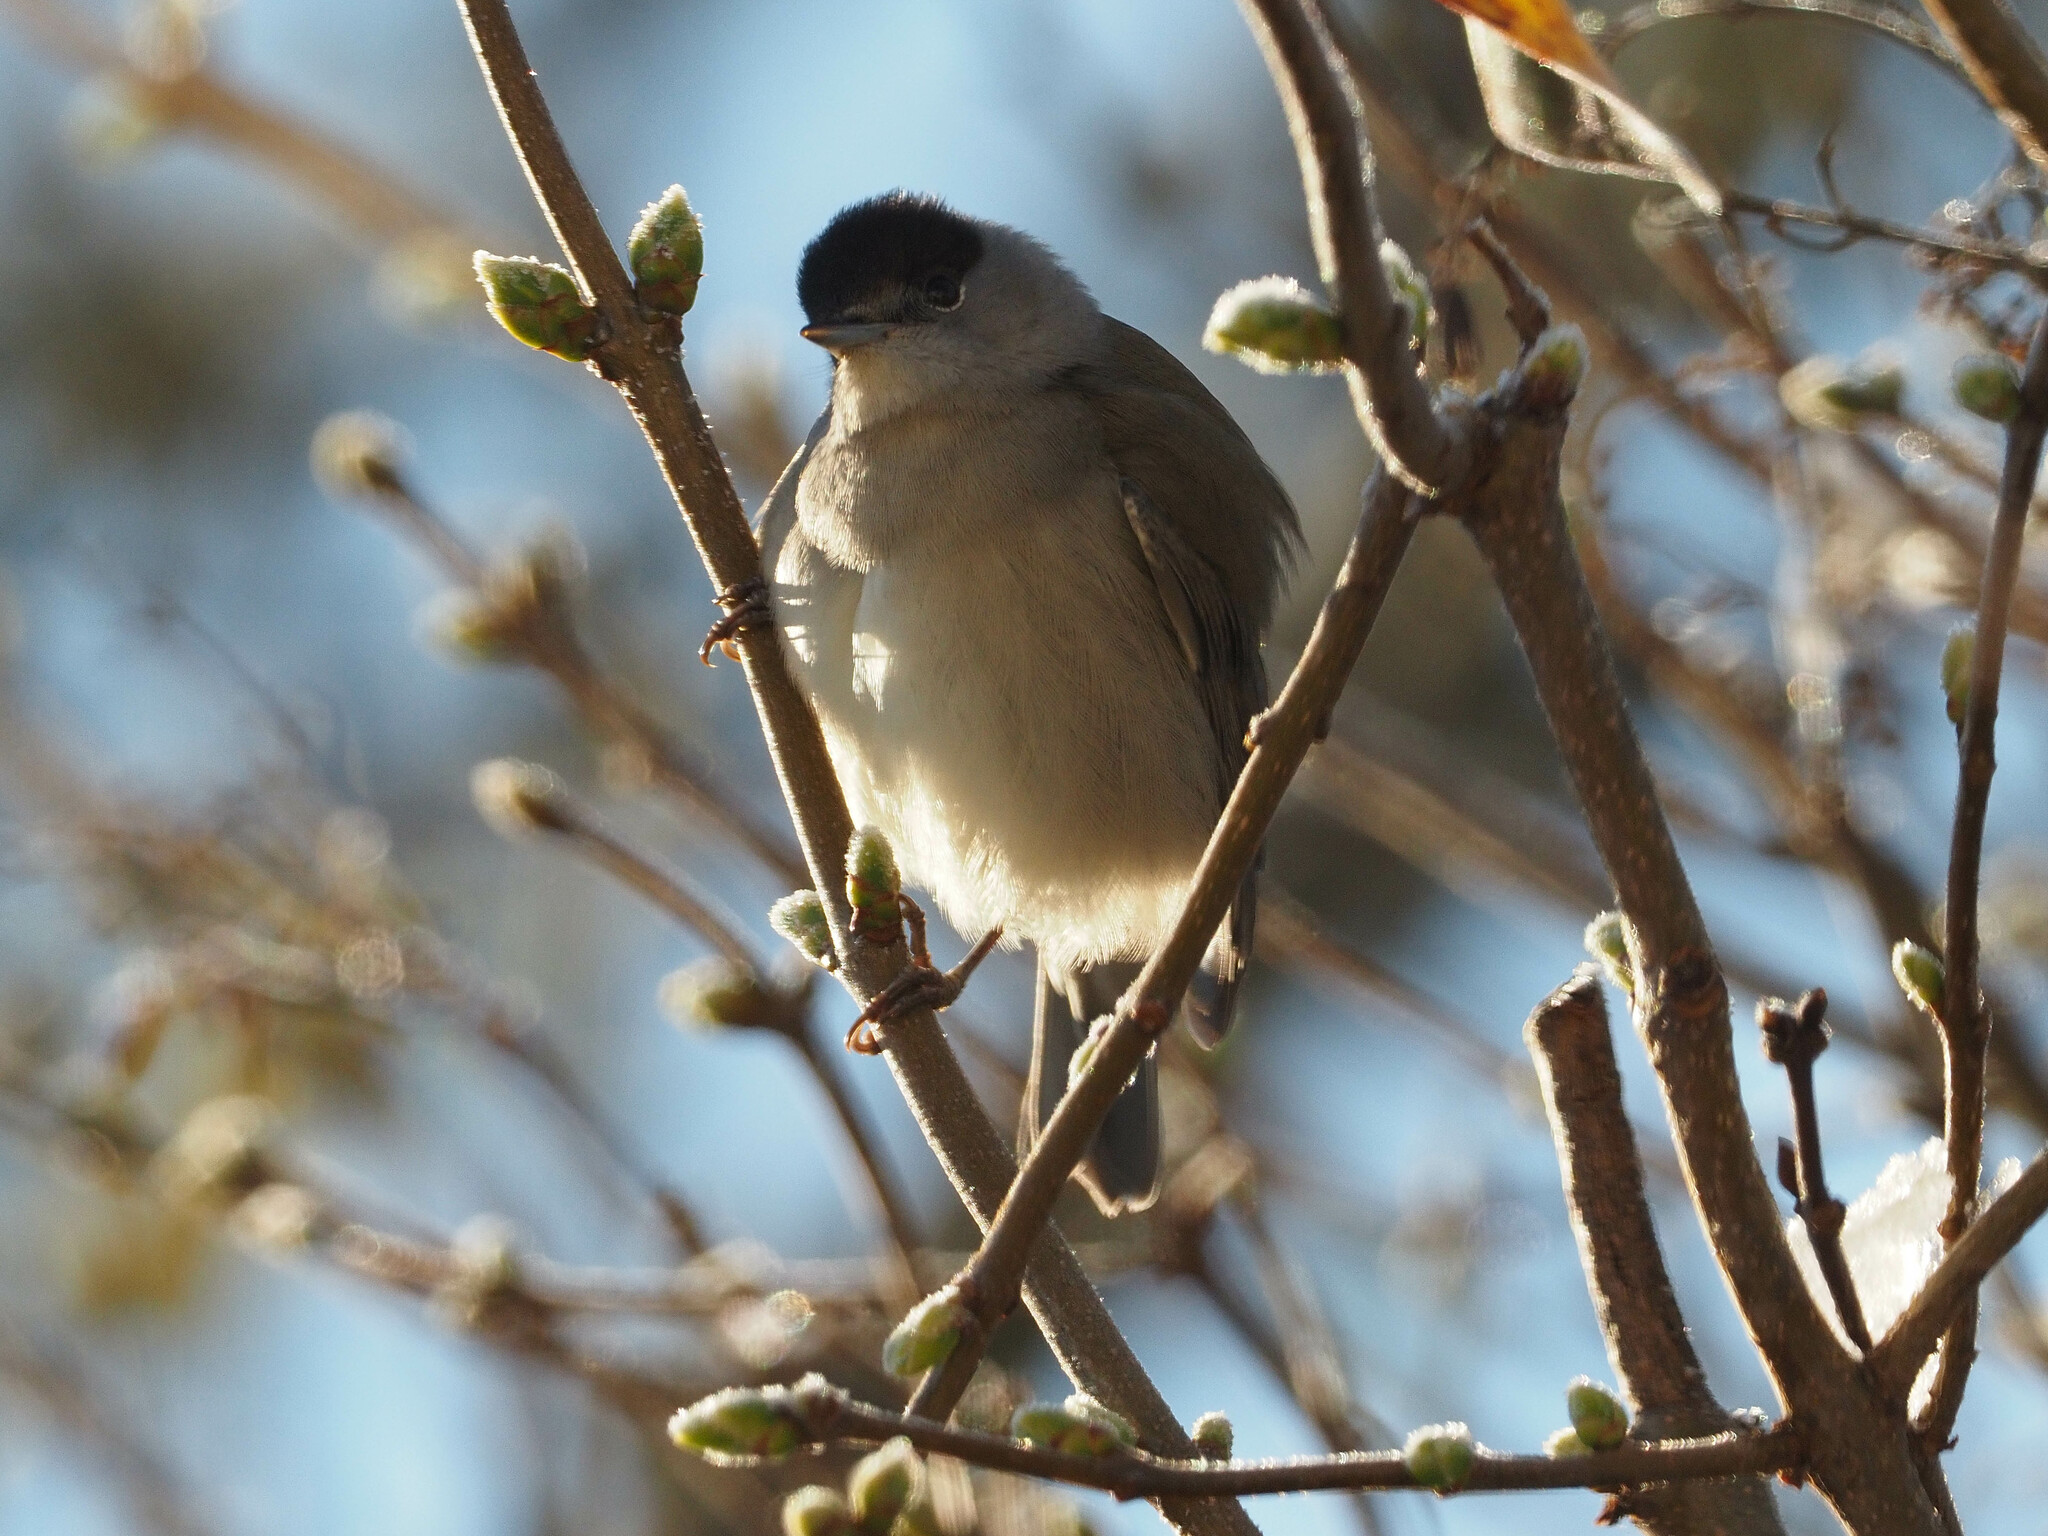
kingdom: Animalia
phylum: Chordata
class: Aves
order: Passeriformes
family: Sylviidae
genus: Sylvia
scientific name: Sylvia atricapilla
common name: Eurasian blackcap
